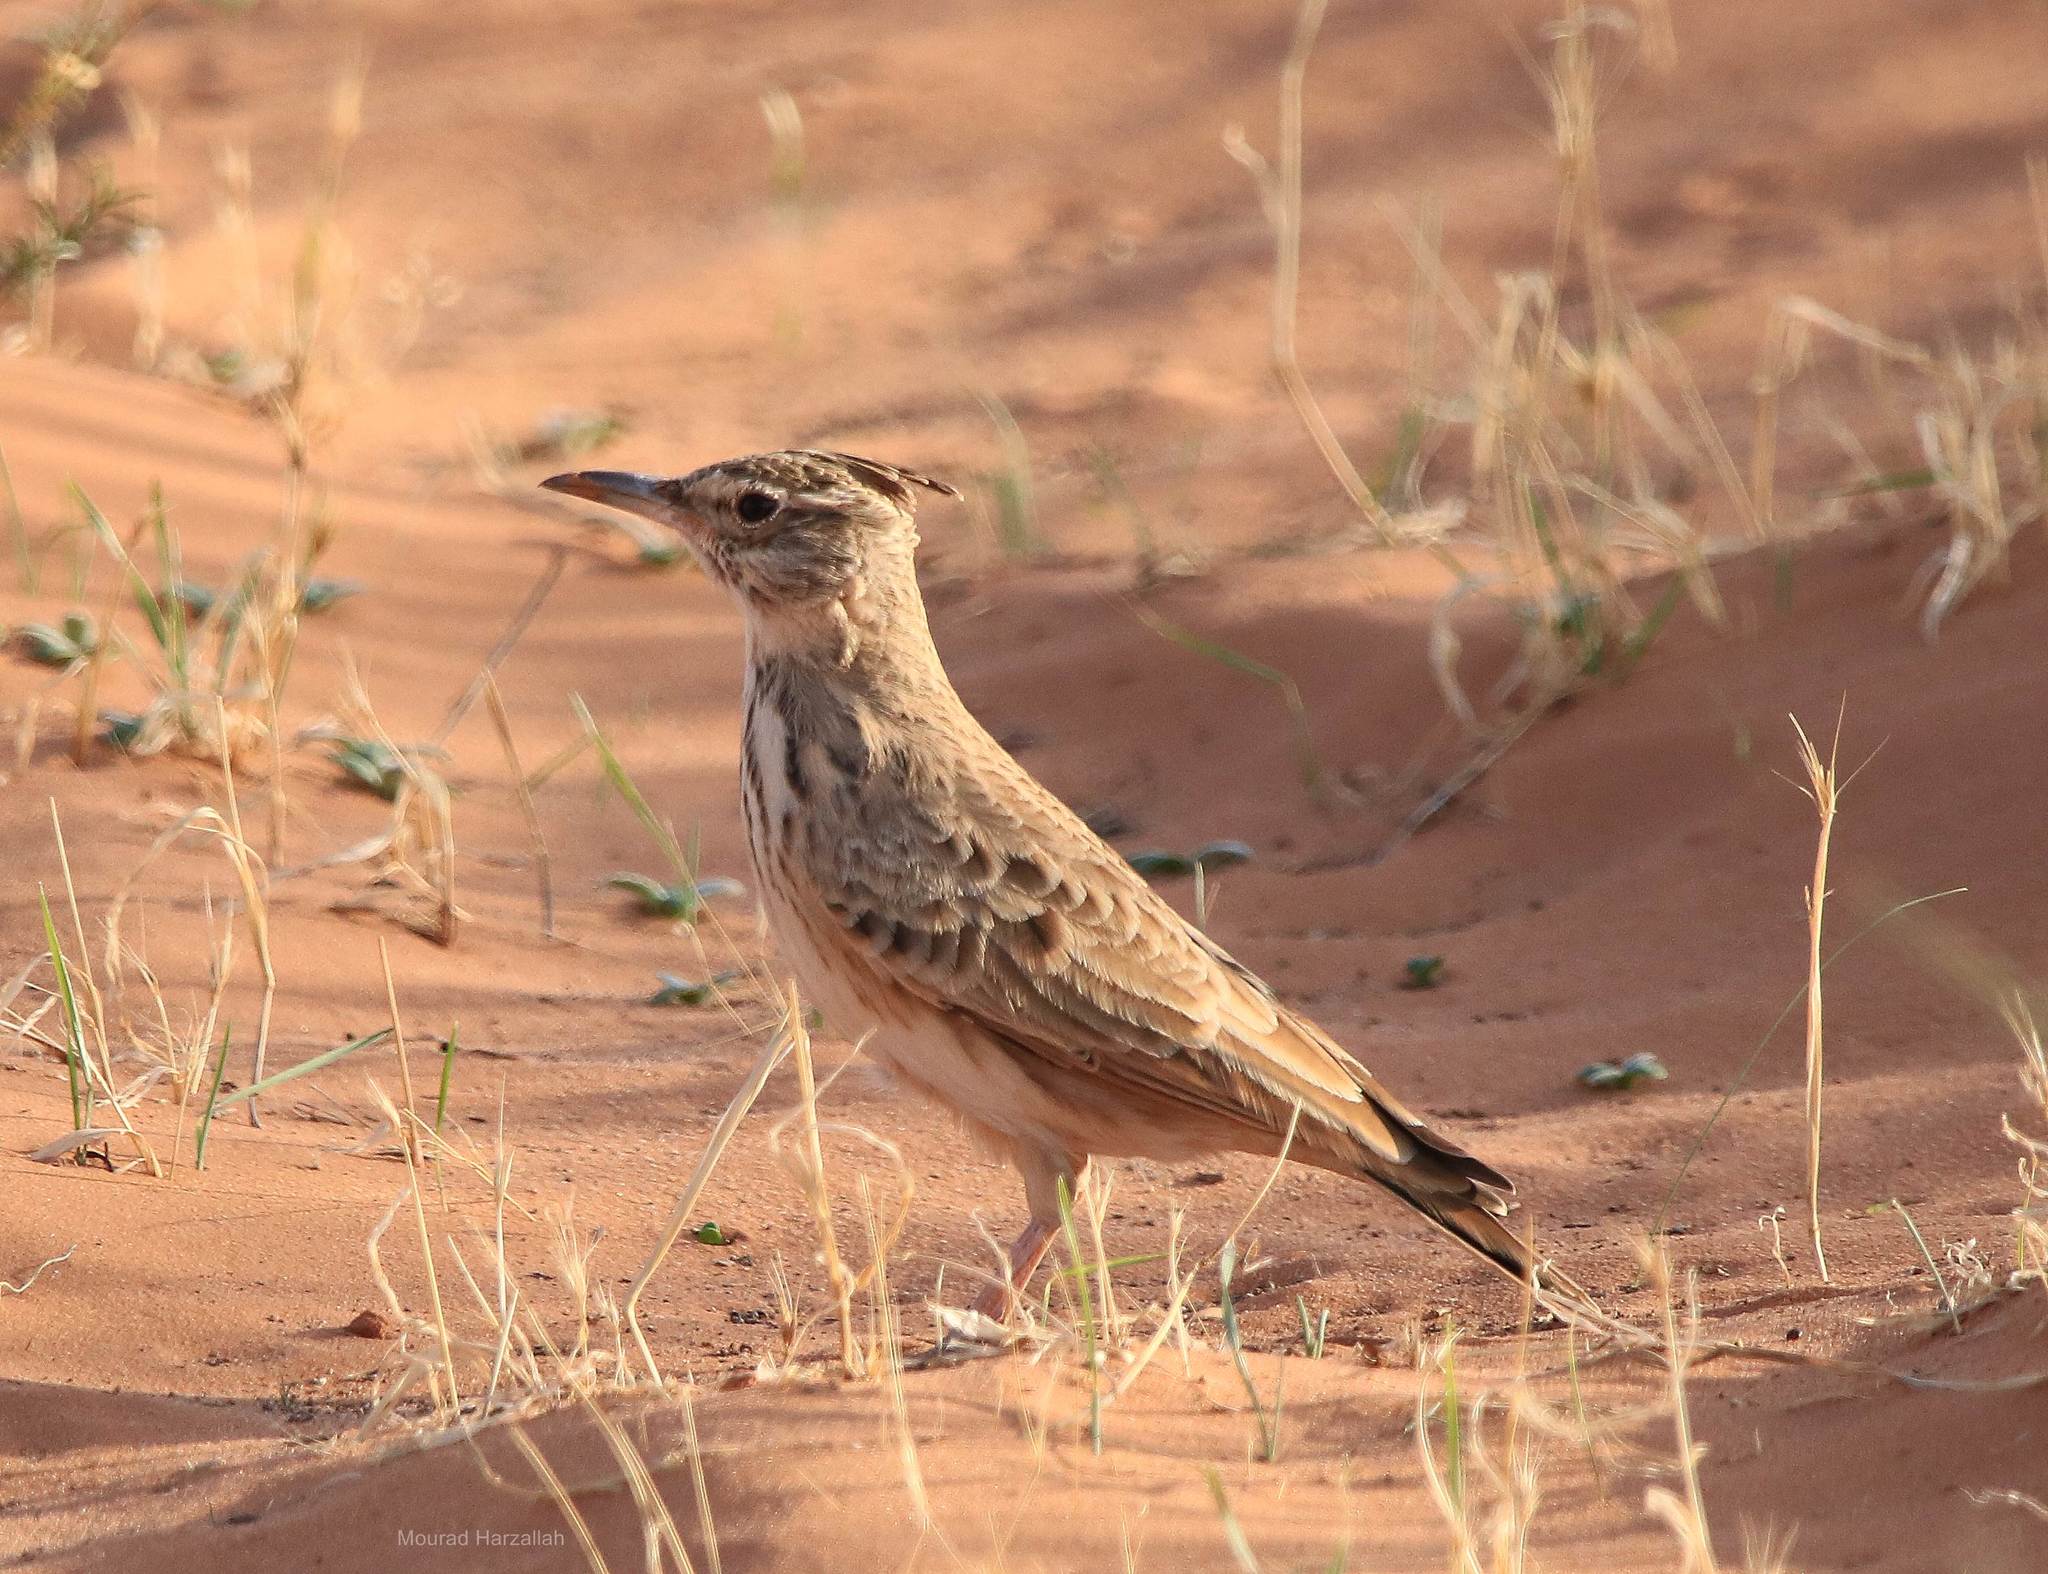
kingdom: Animalia
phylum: Chordata
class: Aves
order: Passeriformes
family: Alaudidae
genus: Galerida
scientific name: Galerida cristata
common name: Crested lark
